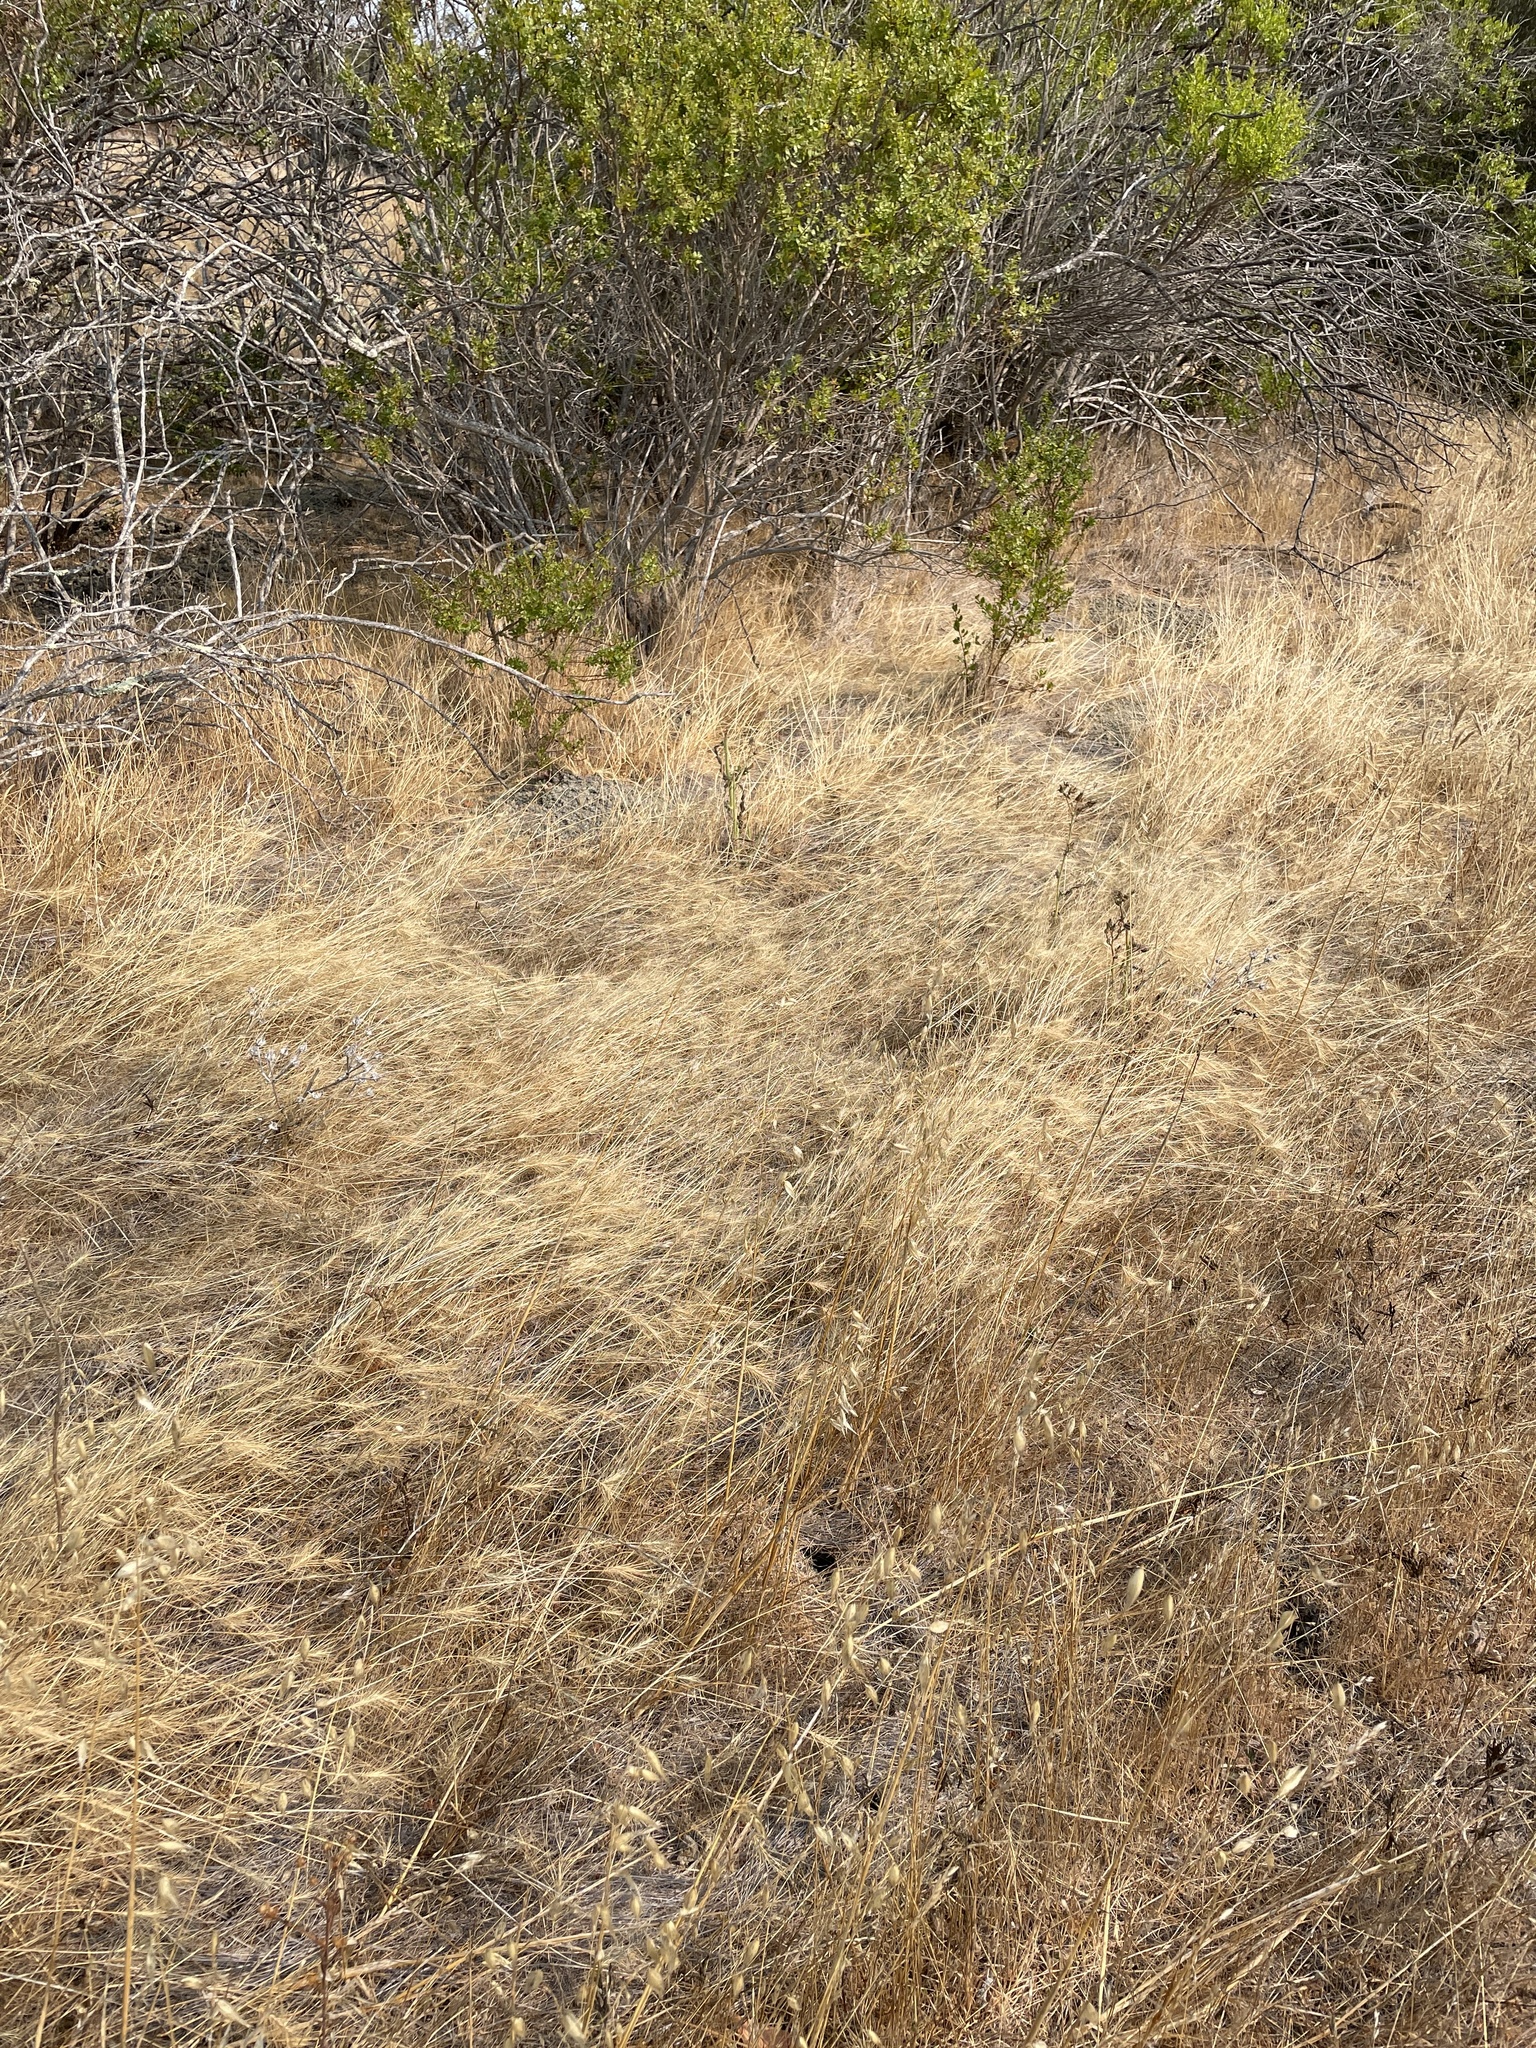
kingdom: Plantae
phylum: Tracheophyta
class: Liliopsida
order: Poales
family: Poaceae
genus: Taeniatherum
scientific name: Taeniatherum caput-medusae
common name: Medusahead
